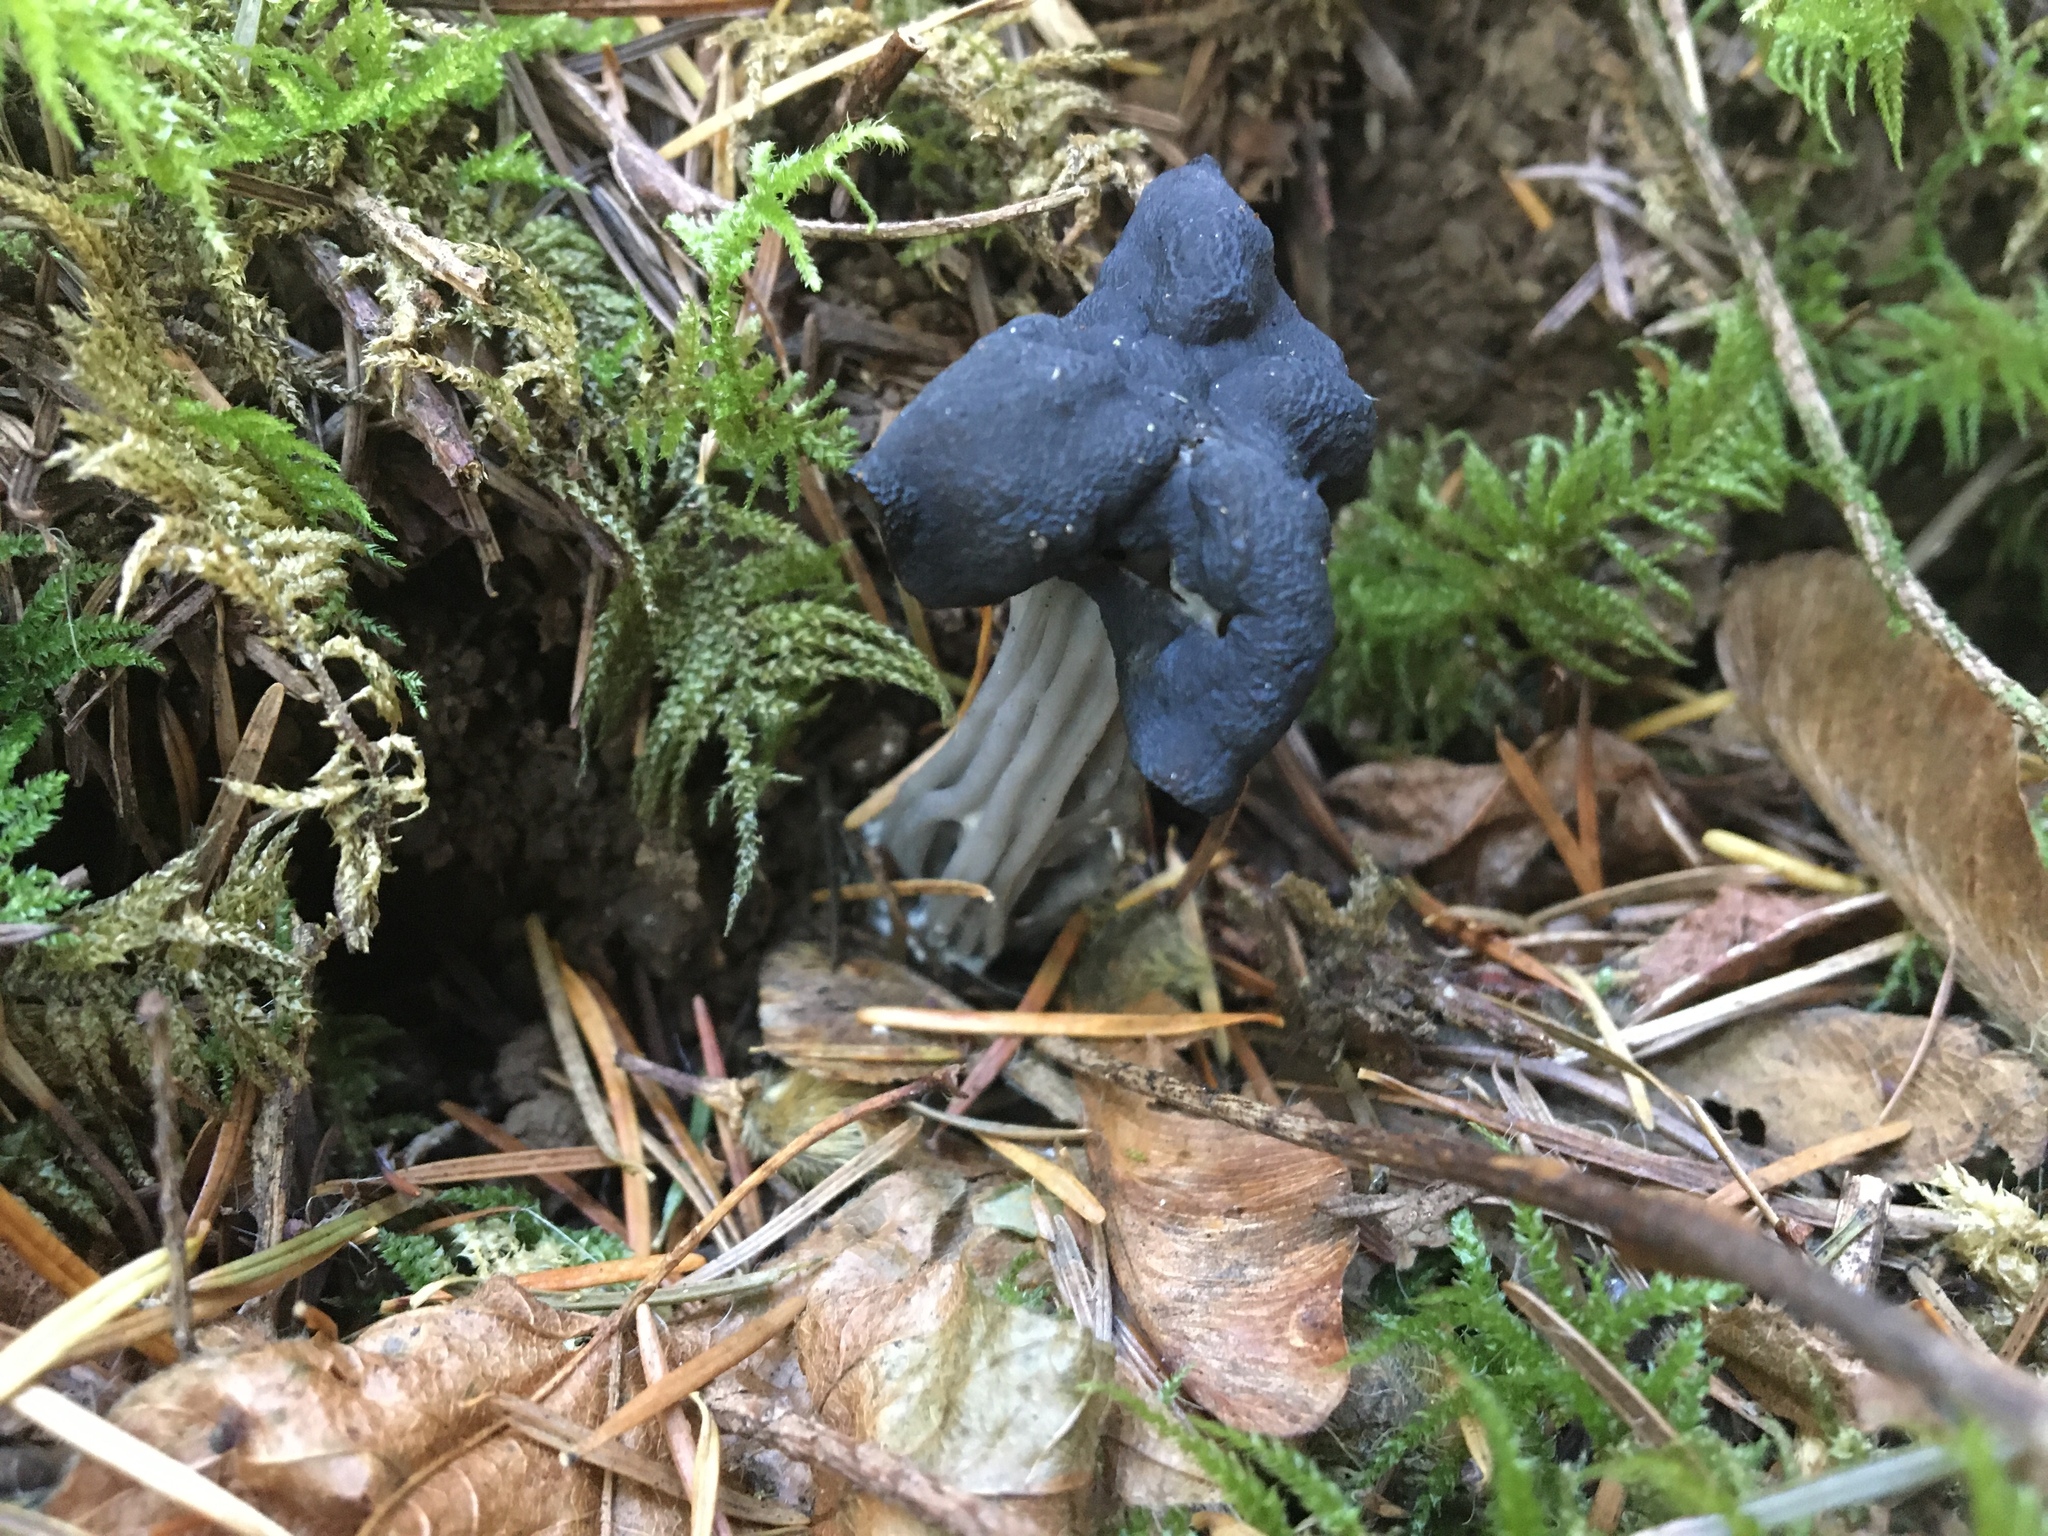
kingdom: Fungi
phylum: Ascomycota
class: Pezizomycetes
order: Pezizales
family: Helvellaceae
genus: Helvella
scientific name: Helvella vespertina
